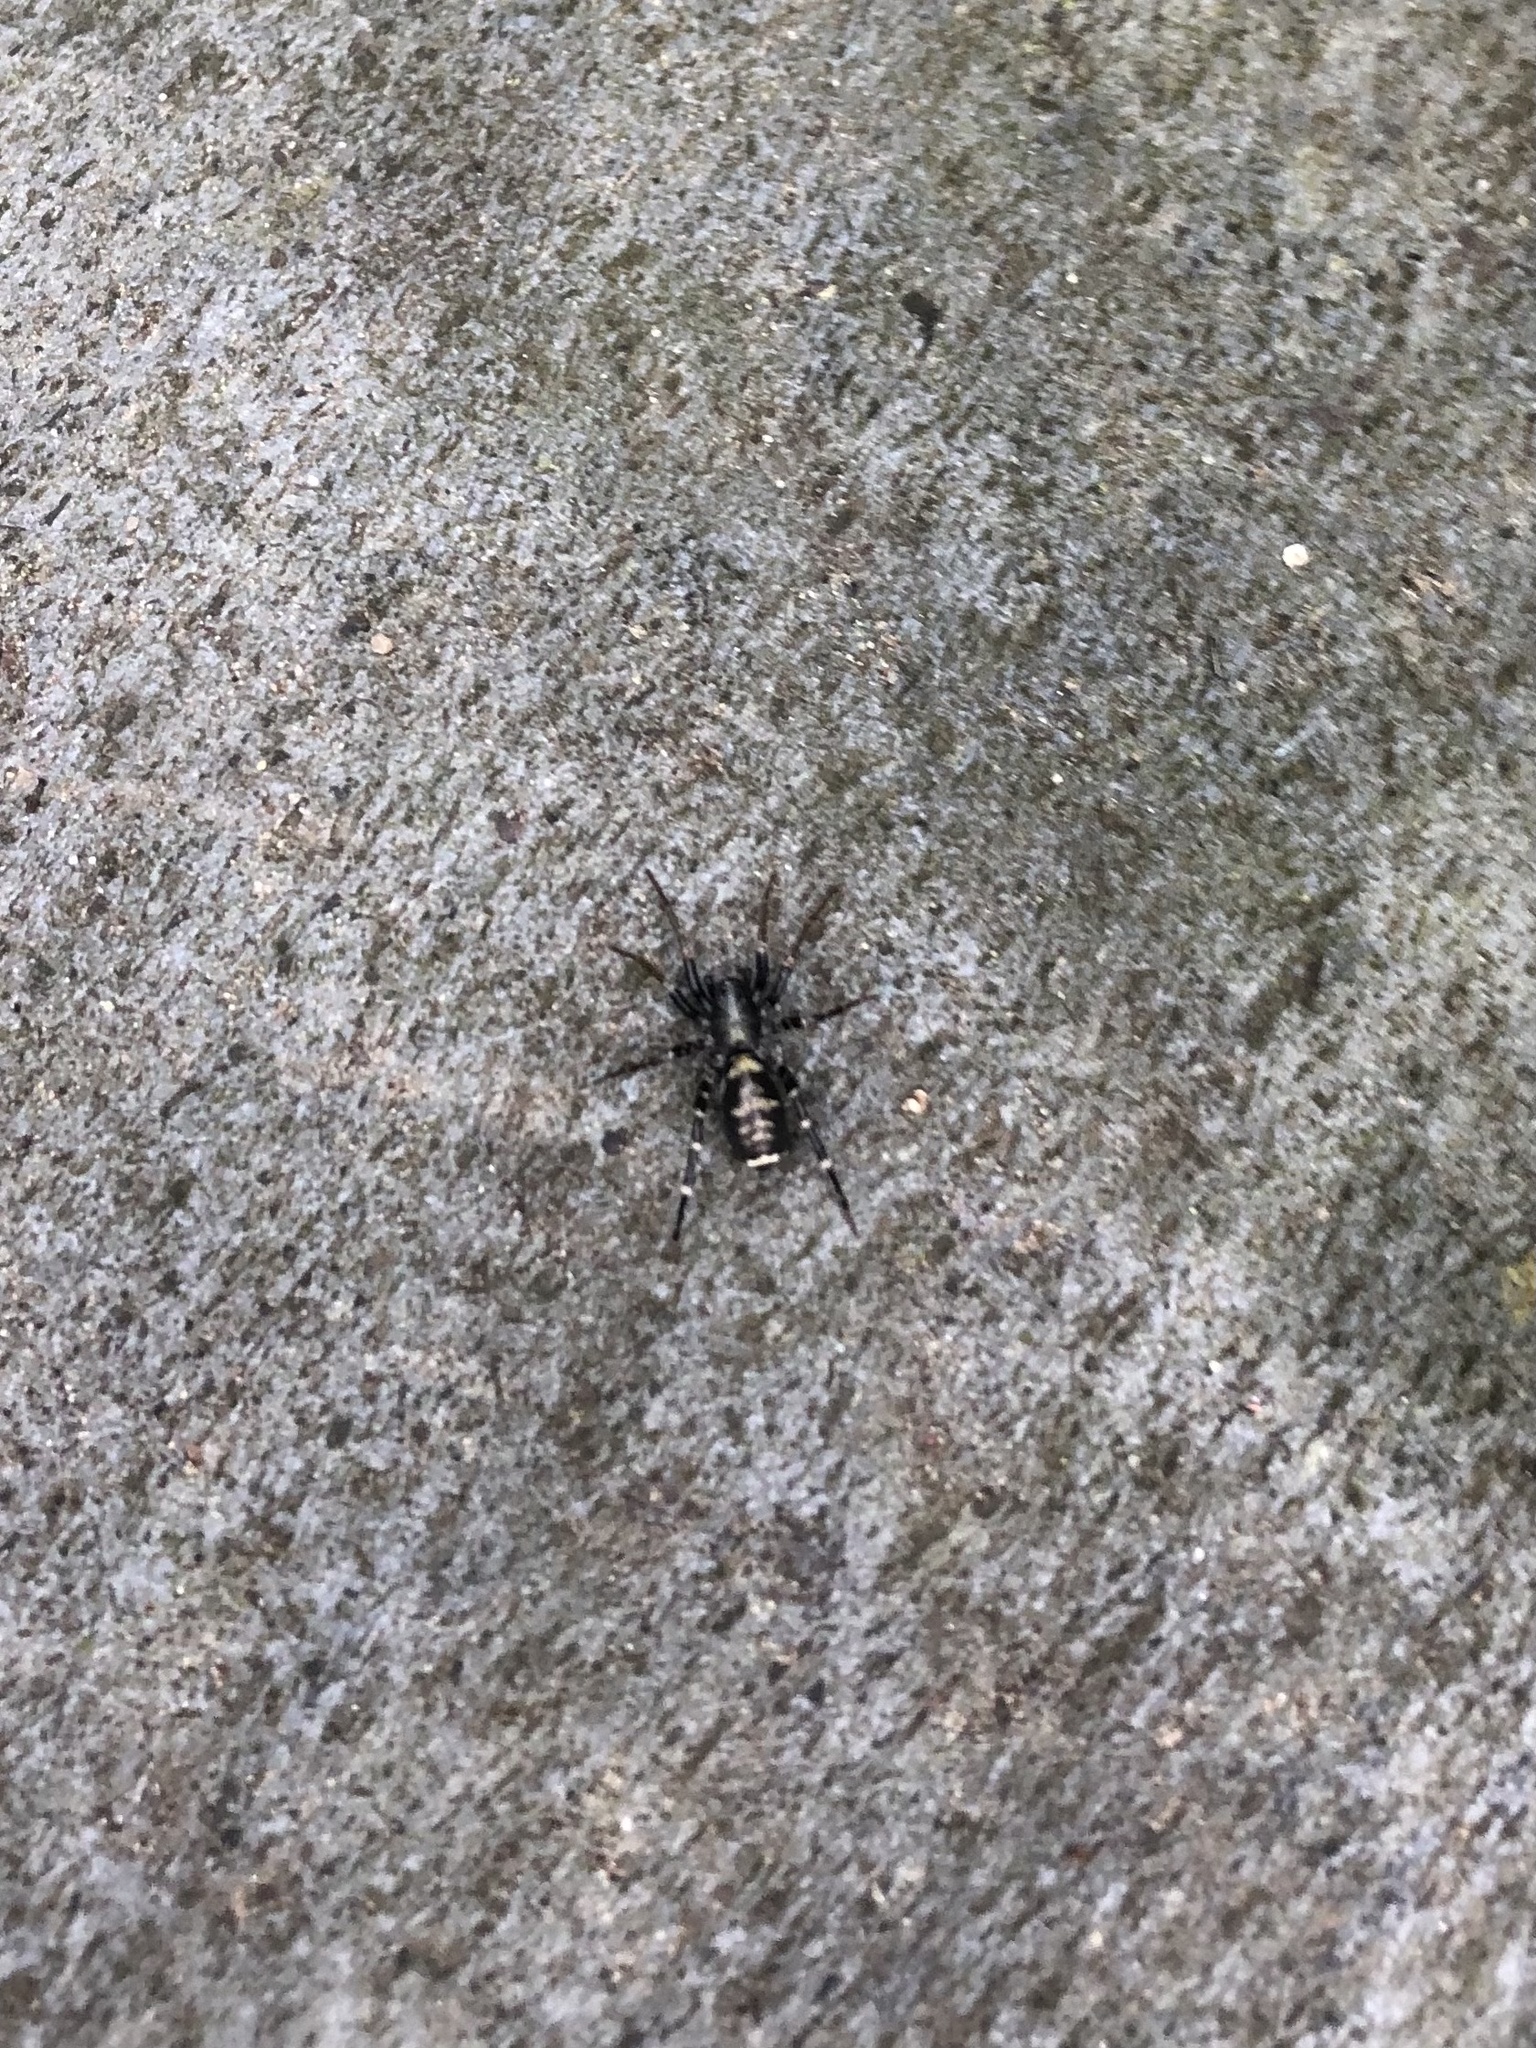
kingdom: Animalia
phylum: Arthropoda
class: Arachnida
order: Araneae
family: Corinnidae
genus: Castianeira
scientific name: Castianeira
